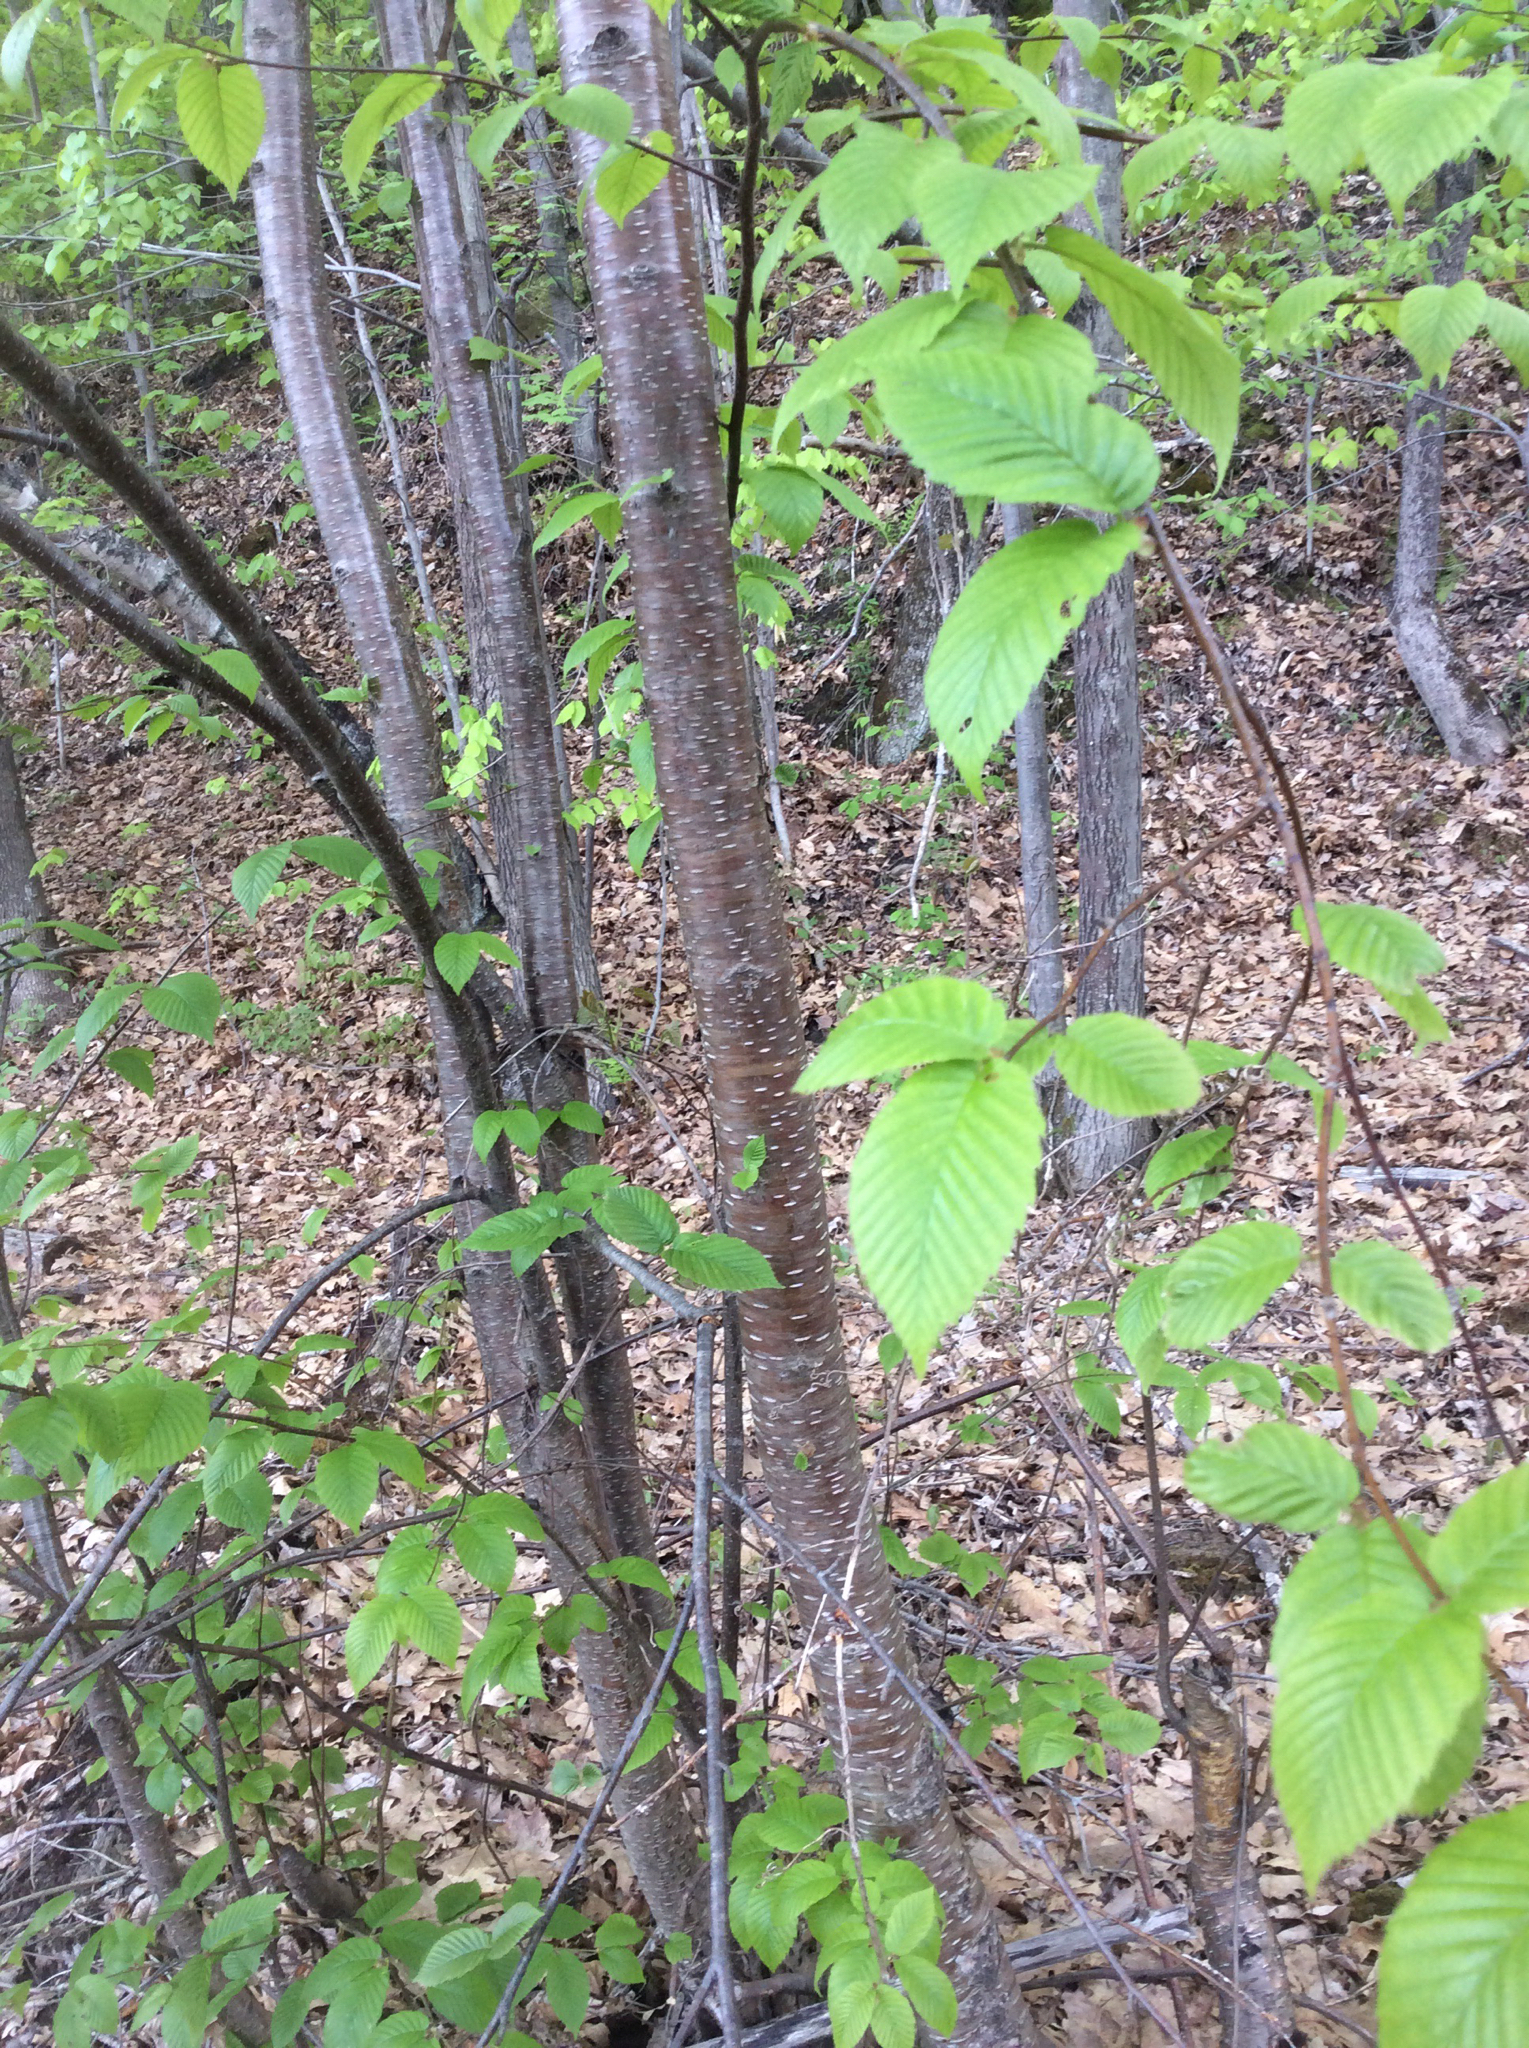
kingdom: Plantae
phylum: Tracheophyta
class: Magnoliopsida
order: Fagales
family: Betulaceae
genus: Betula
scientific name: Betula alleghaniensis
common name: Yellow birch
